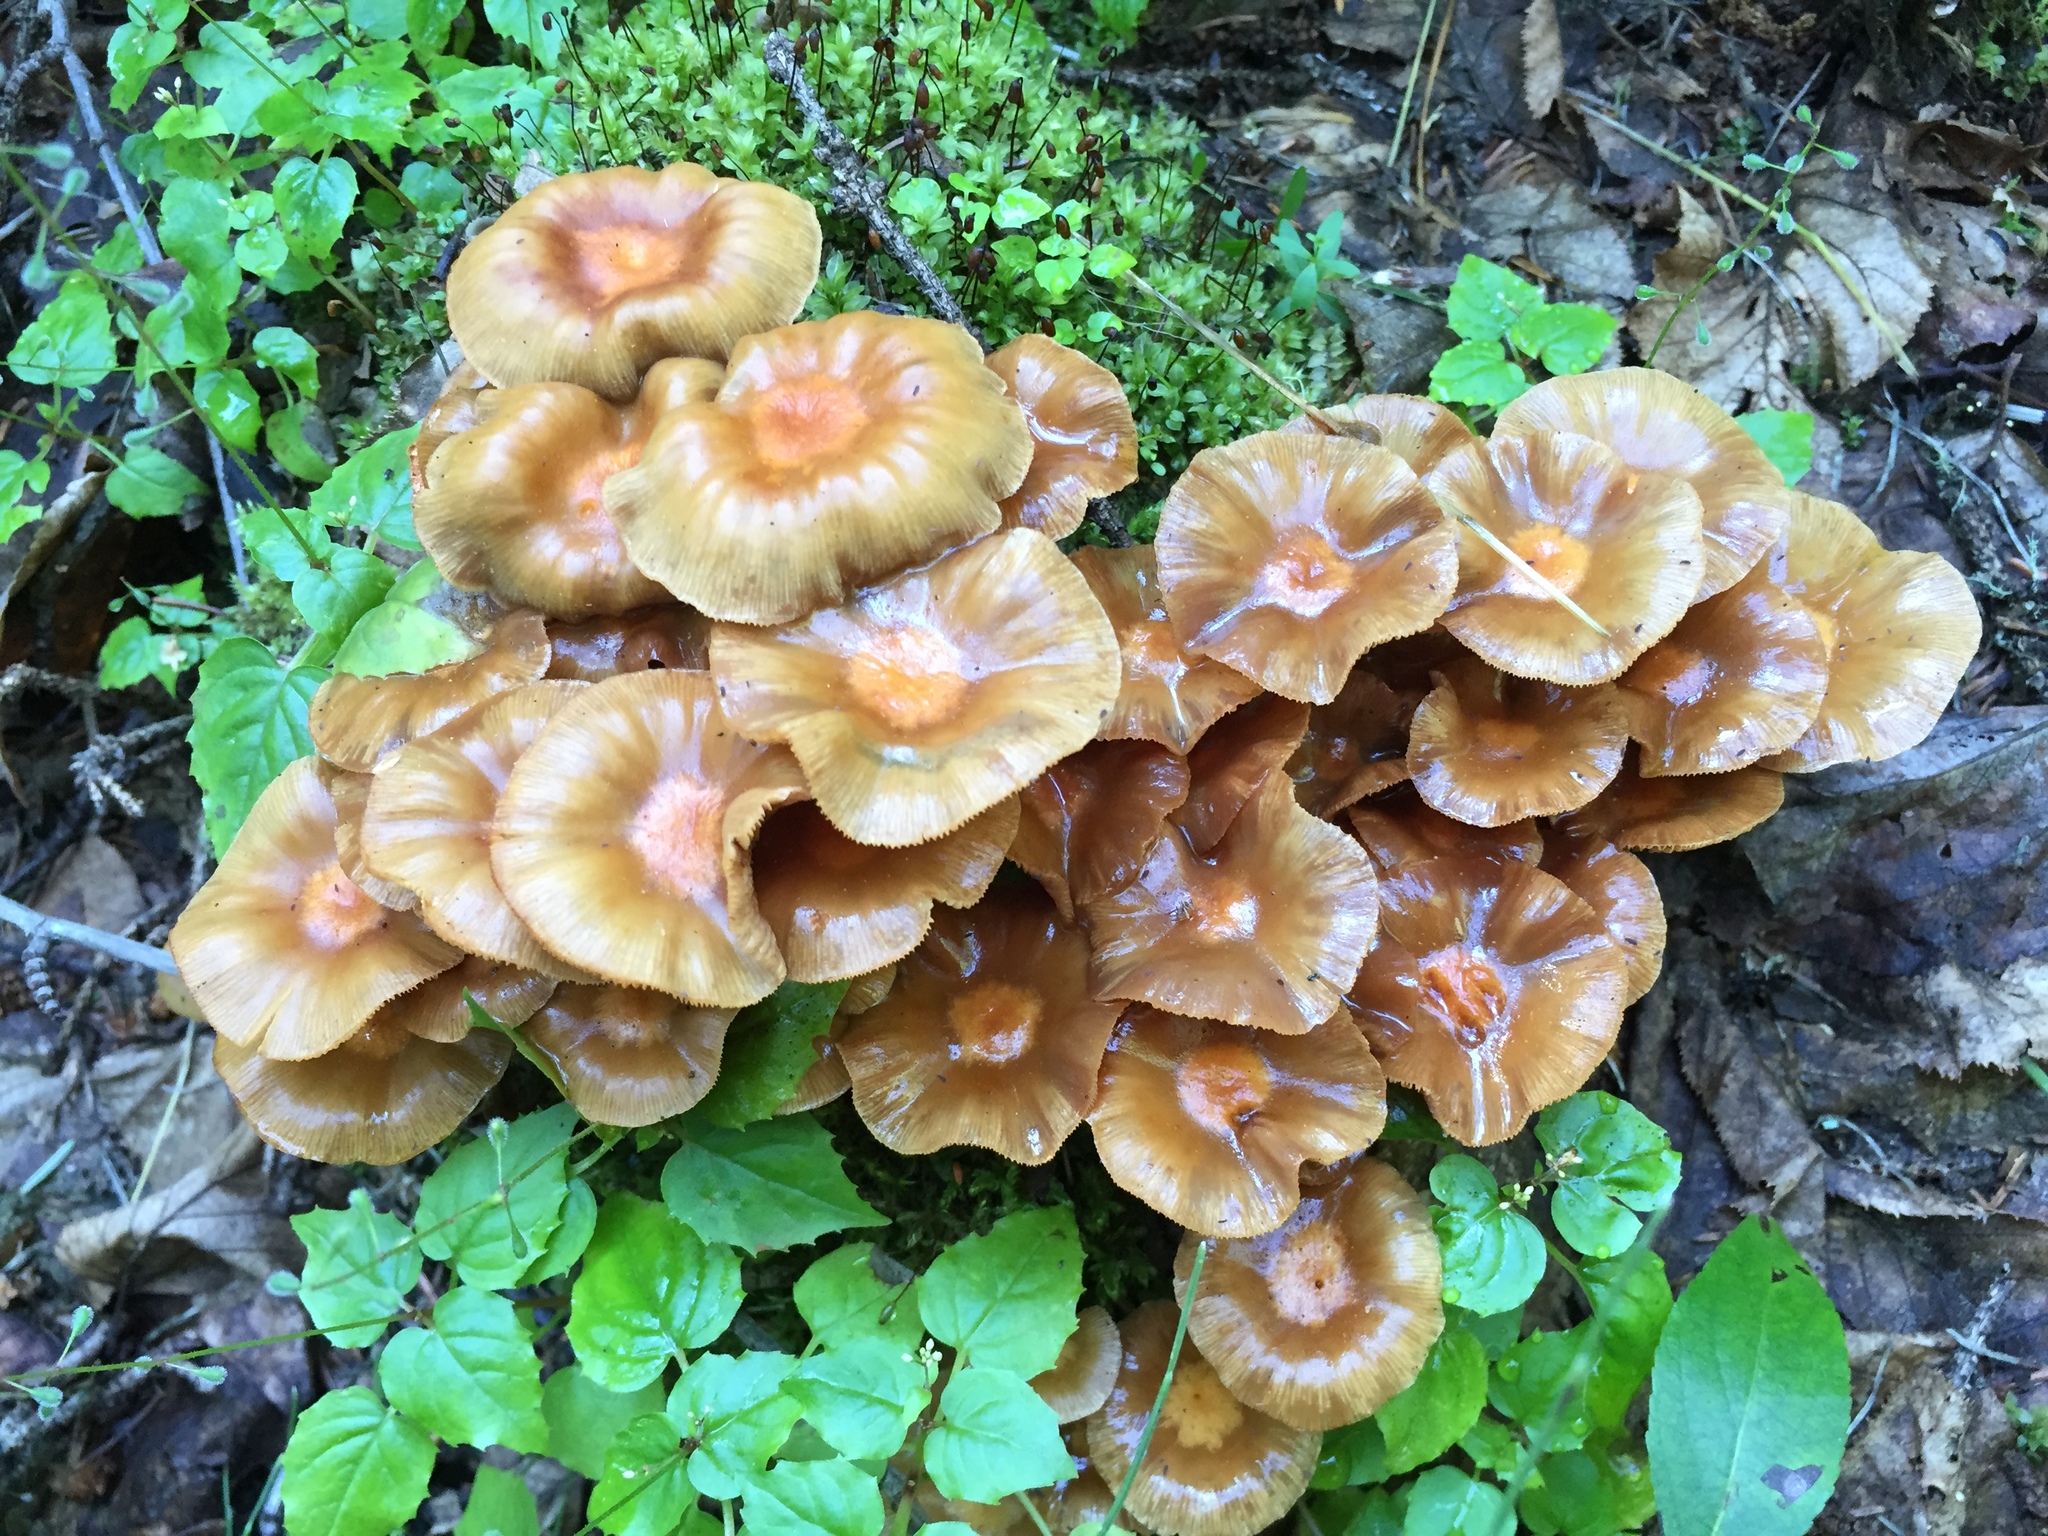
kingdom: Fungi
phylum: Basidiomycota
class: Agaricomycetes
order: Agaricales
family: Hymenogastraceae
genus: Flammula
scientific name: Flammula alnicola
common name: Alder scalycap
